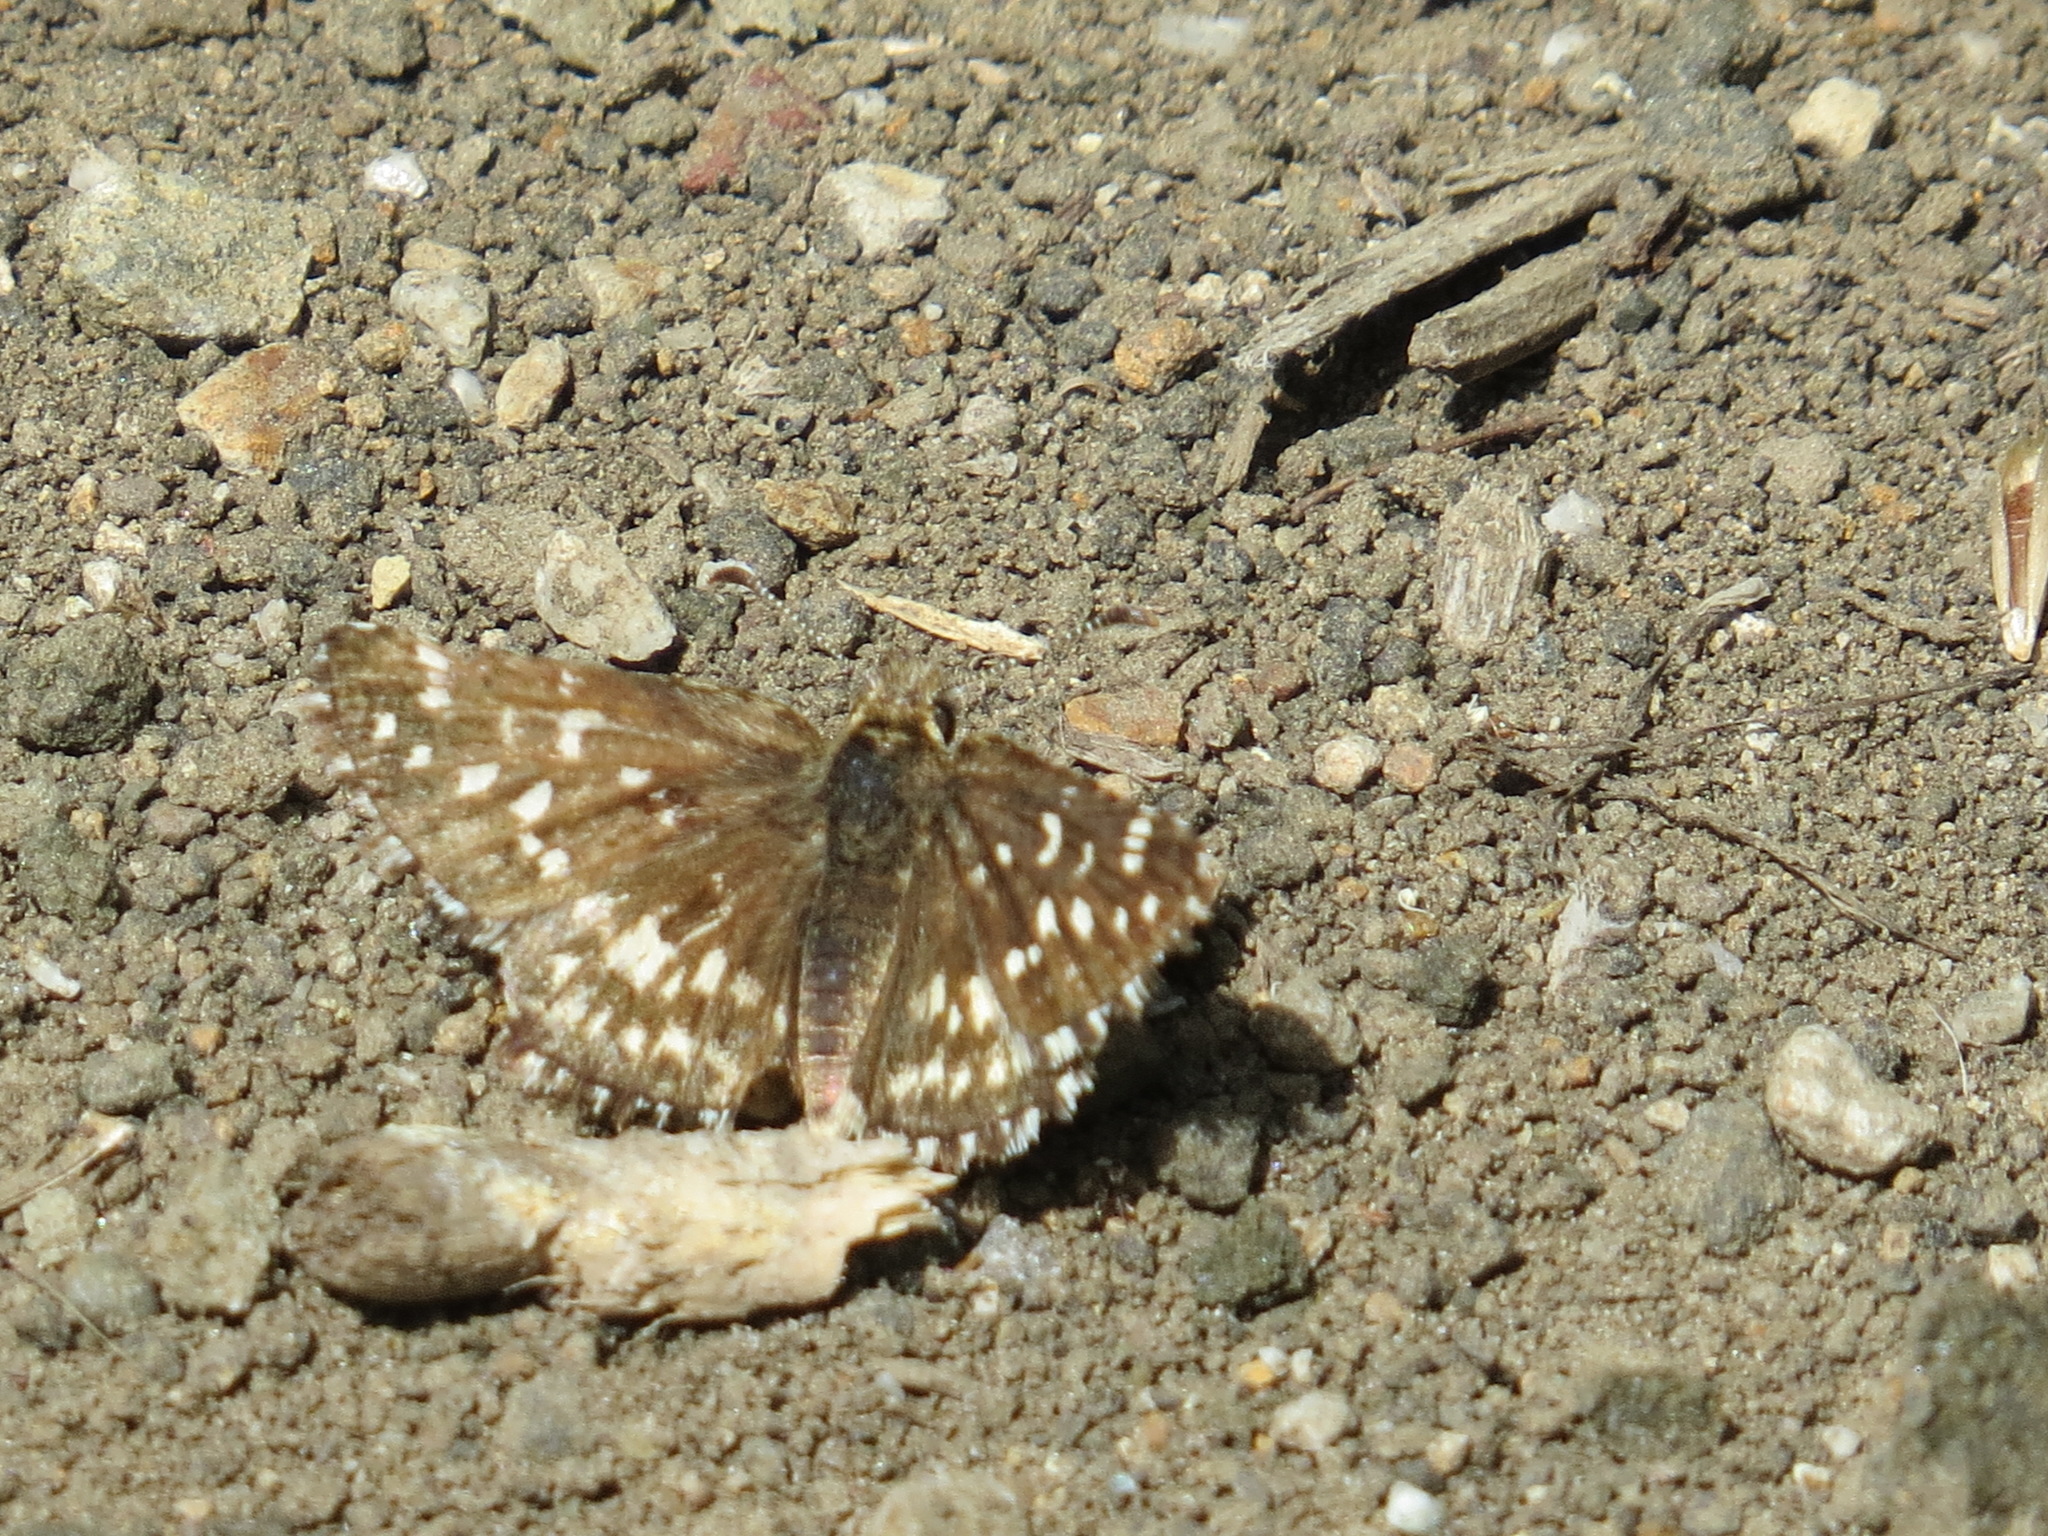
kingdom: Animalia
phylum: Arthropoda
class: Insecta
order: Lepidoptera
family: Hesperiidae
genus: Pyrgus
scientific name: Pyrgus ruralis
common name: Two-banded checkered-skipper
